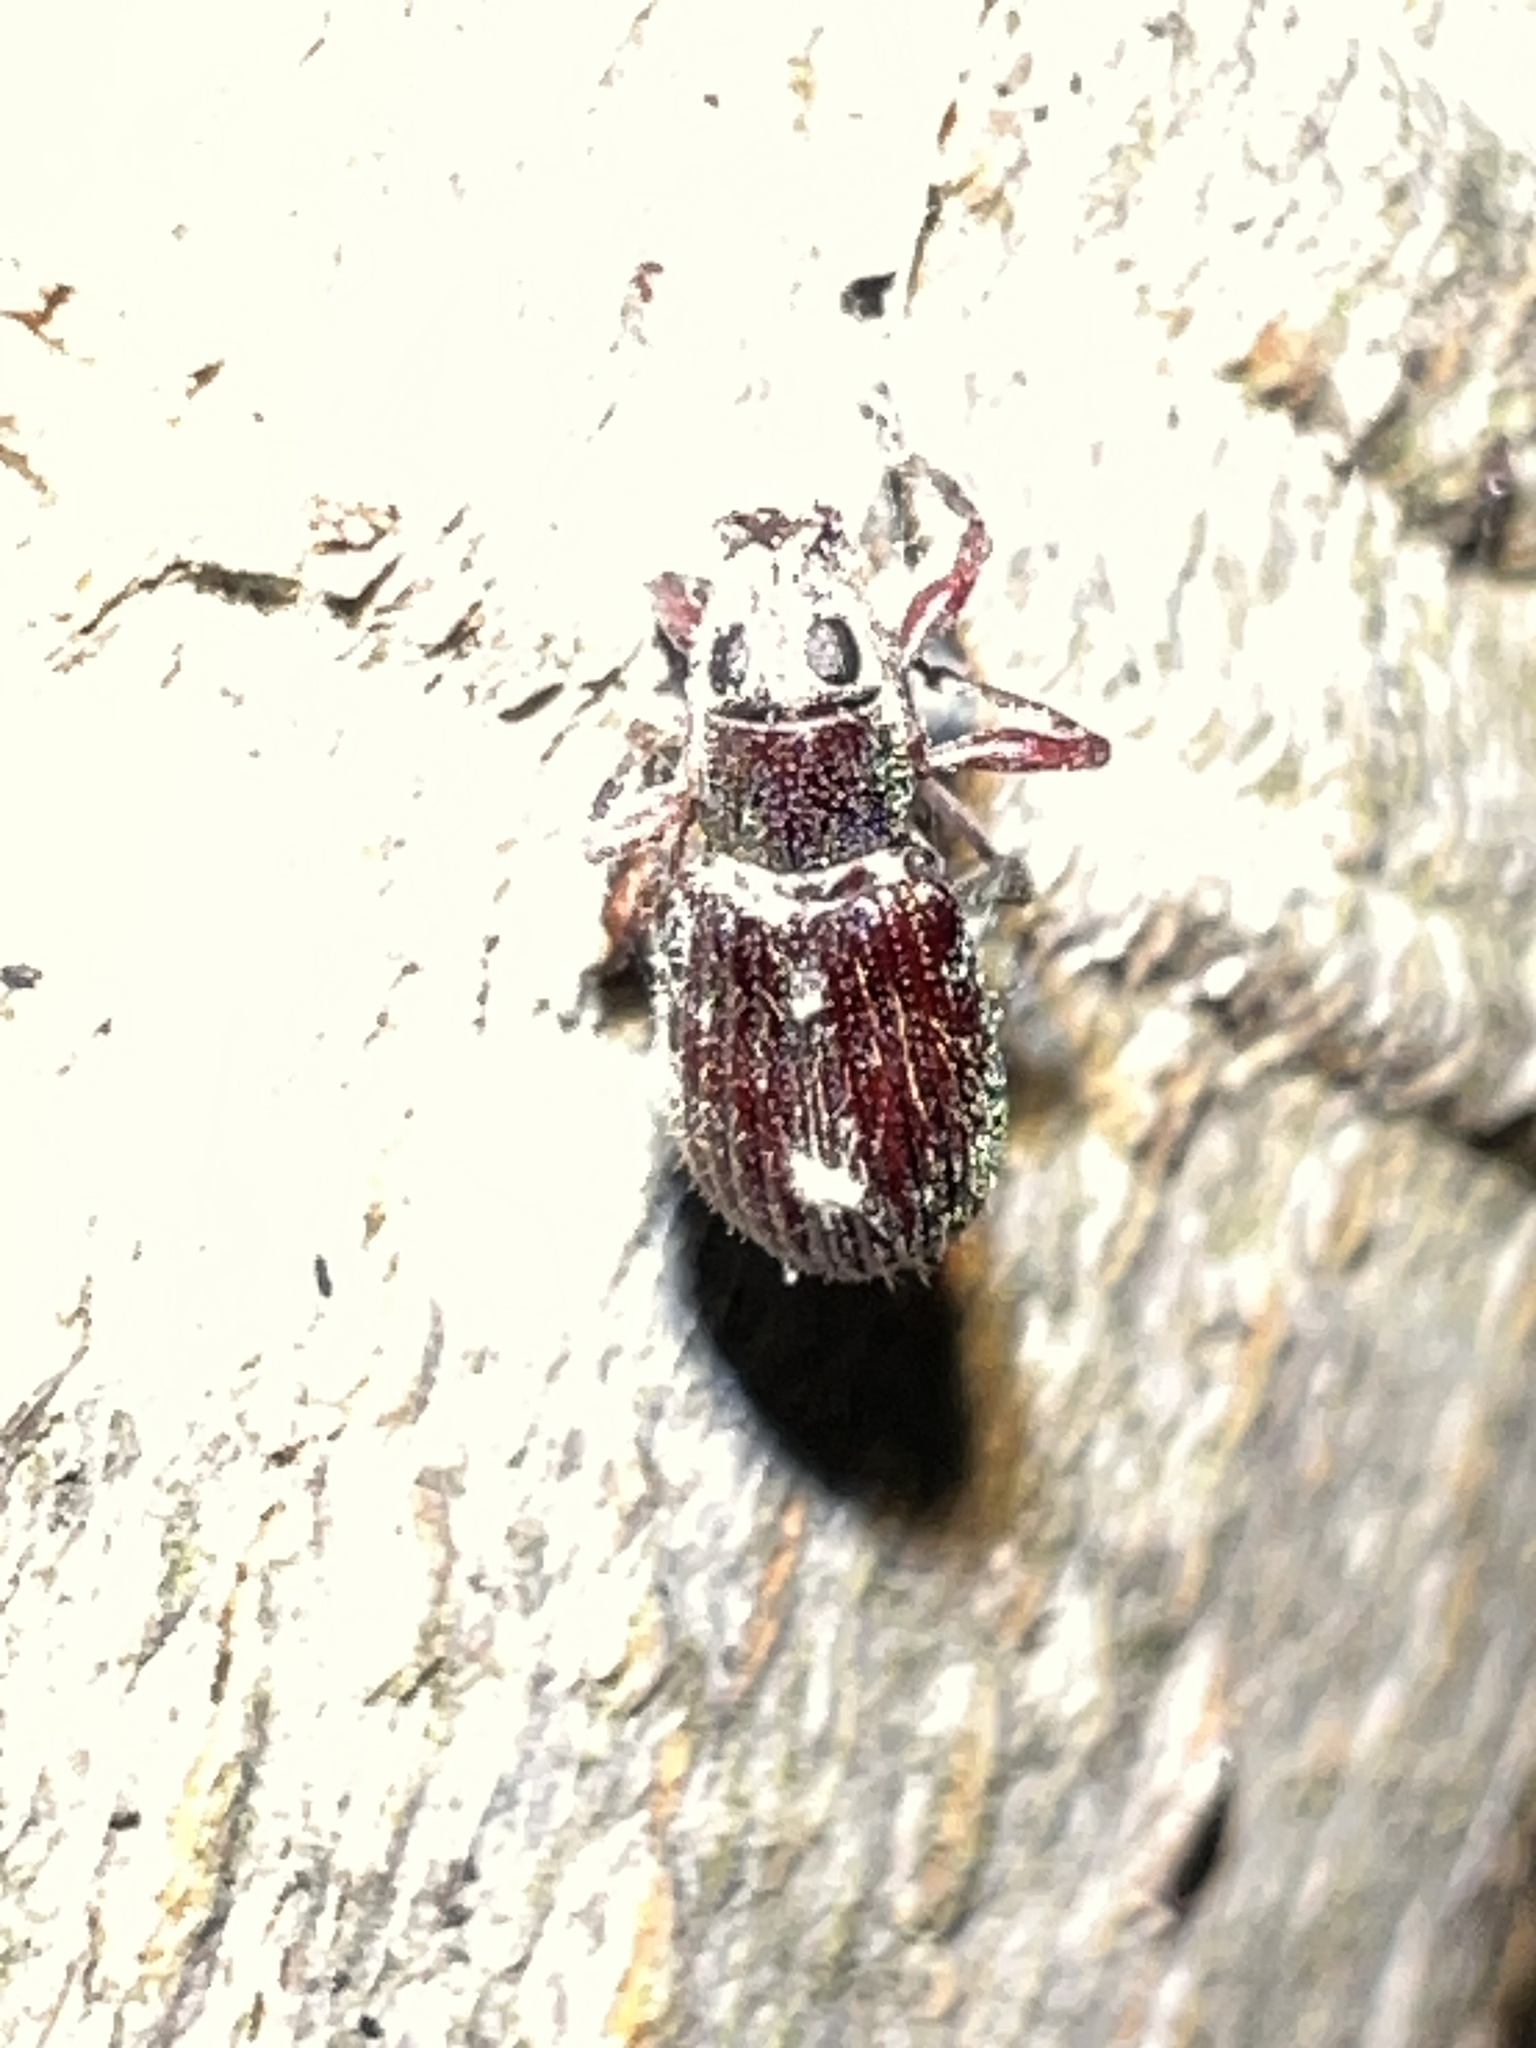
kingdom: Animalia
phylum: Arthropoda
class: Insecta
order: Coleoptera
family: Curculionidae
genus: Cyrtepistomus
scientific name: Cyrtepistomus castaneus
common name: Weevil
